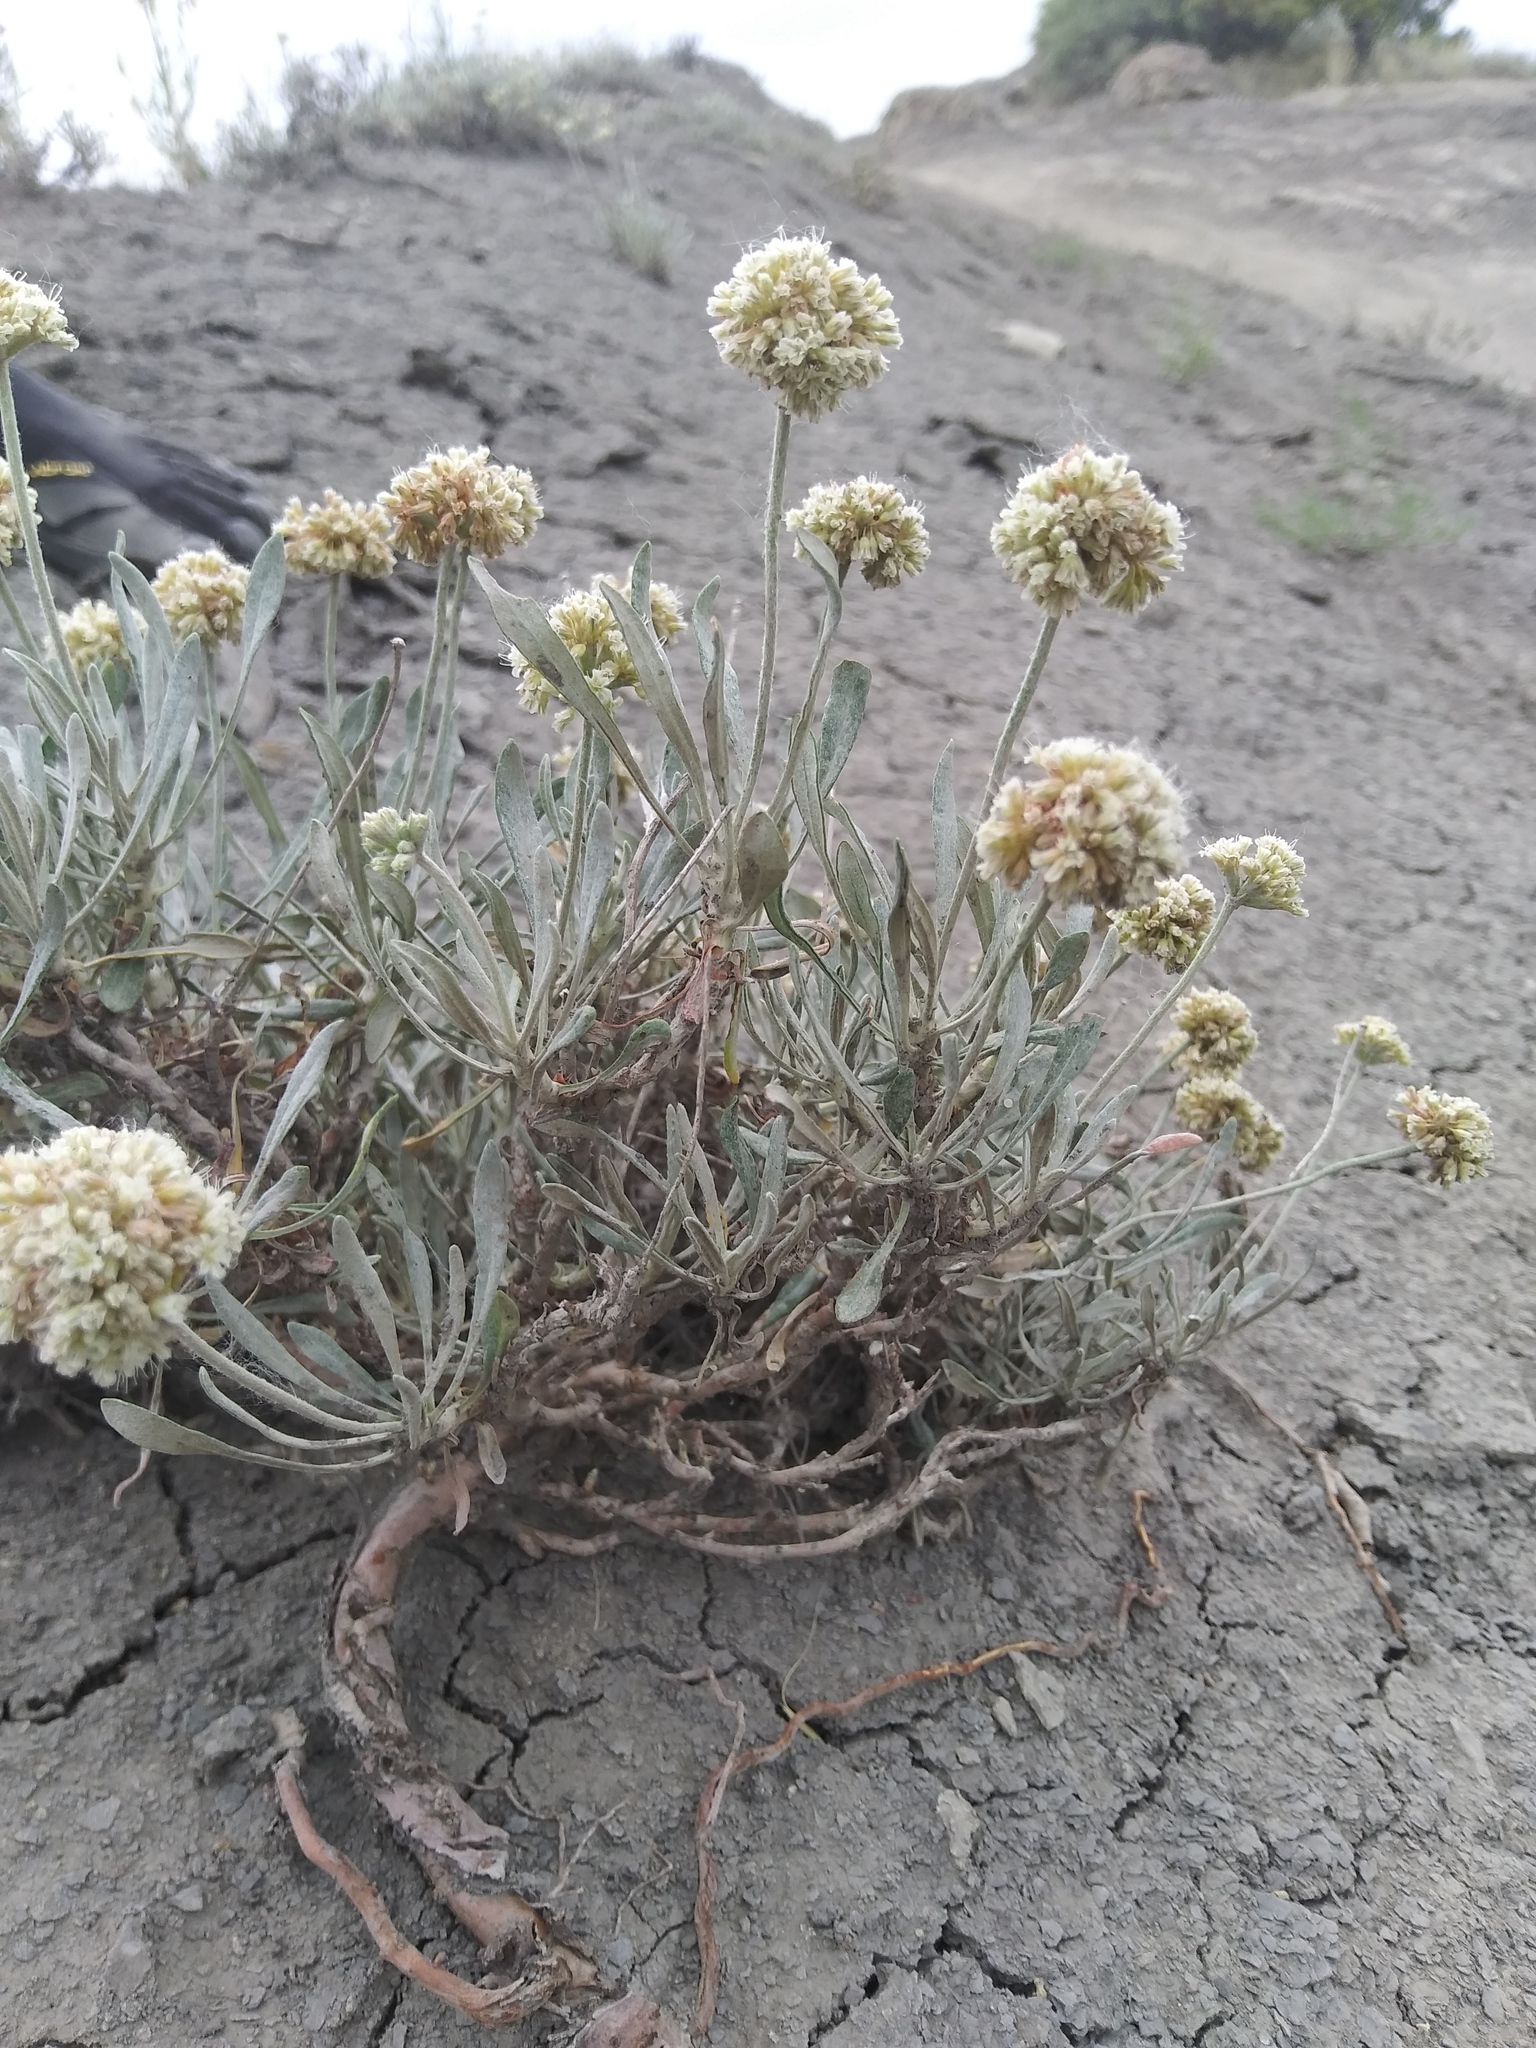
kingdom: Plantae
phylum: Tracheophyta
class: Magnoliopsida
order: Caryophyllales
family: Polygonaceae
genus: Eriogonum
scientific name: Eriogonum pauciflorum
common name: Few-flower wild buckwheat
